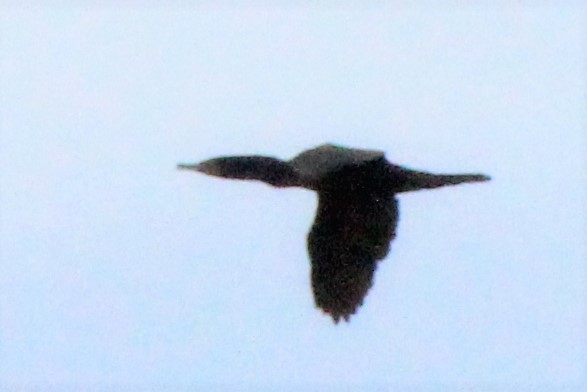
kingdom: Animalia
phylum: Chordata
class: Aves
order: Suliformes
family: Phalacrocoracidae
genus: Phalacrocorax
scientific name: Phalacrocorax auritus
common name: Double-crested cormorant
